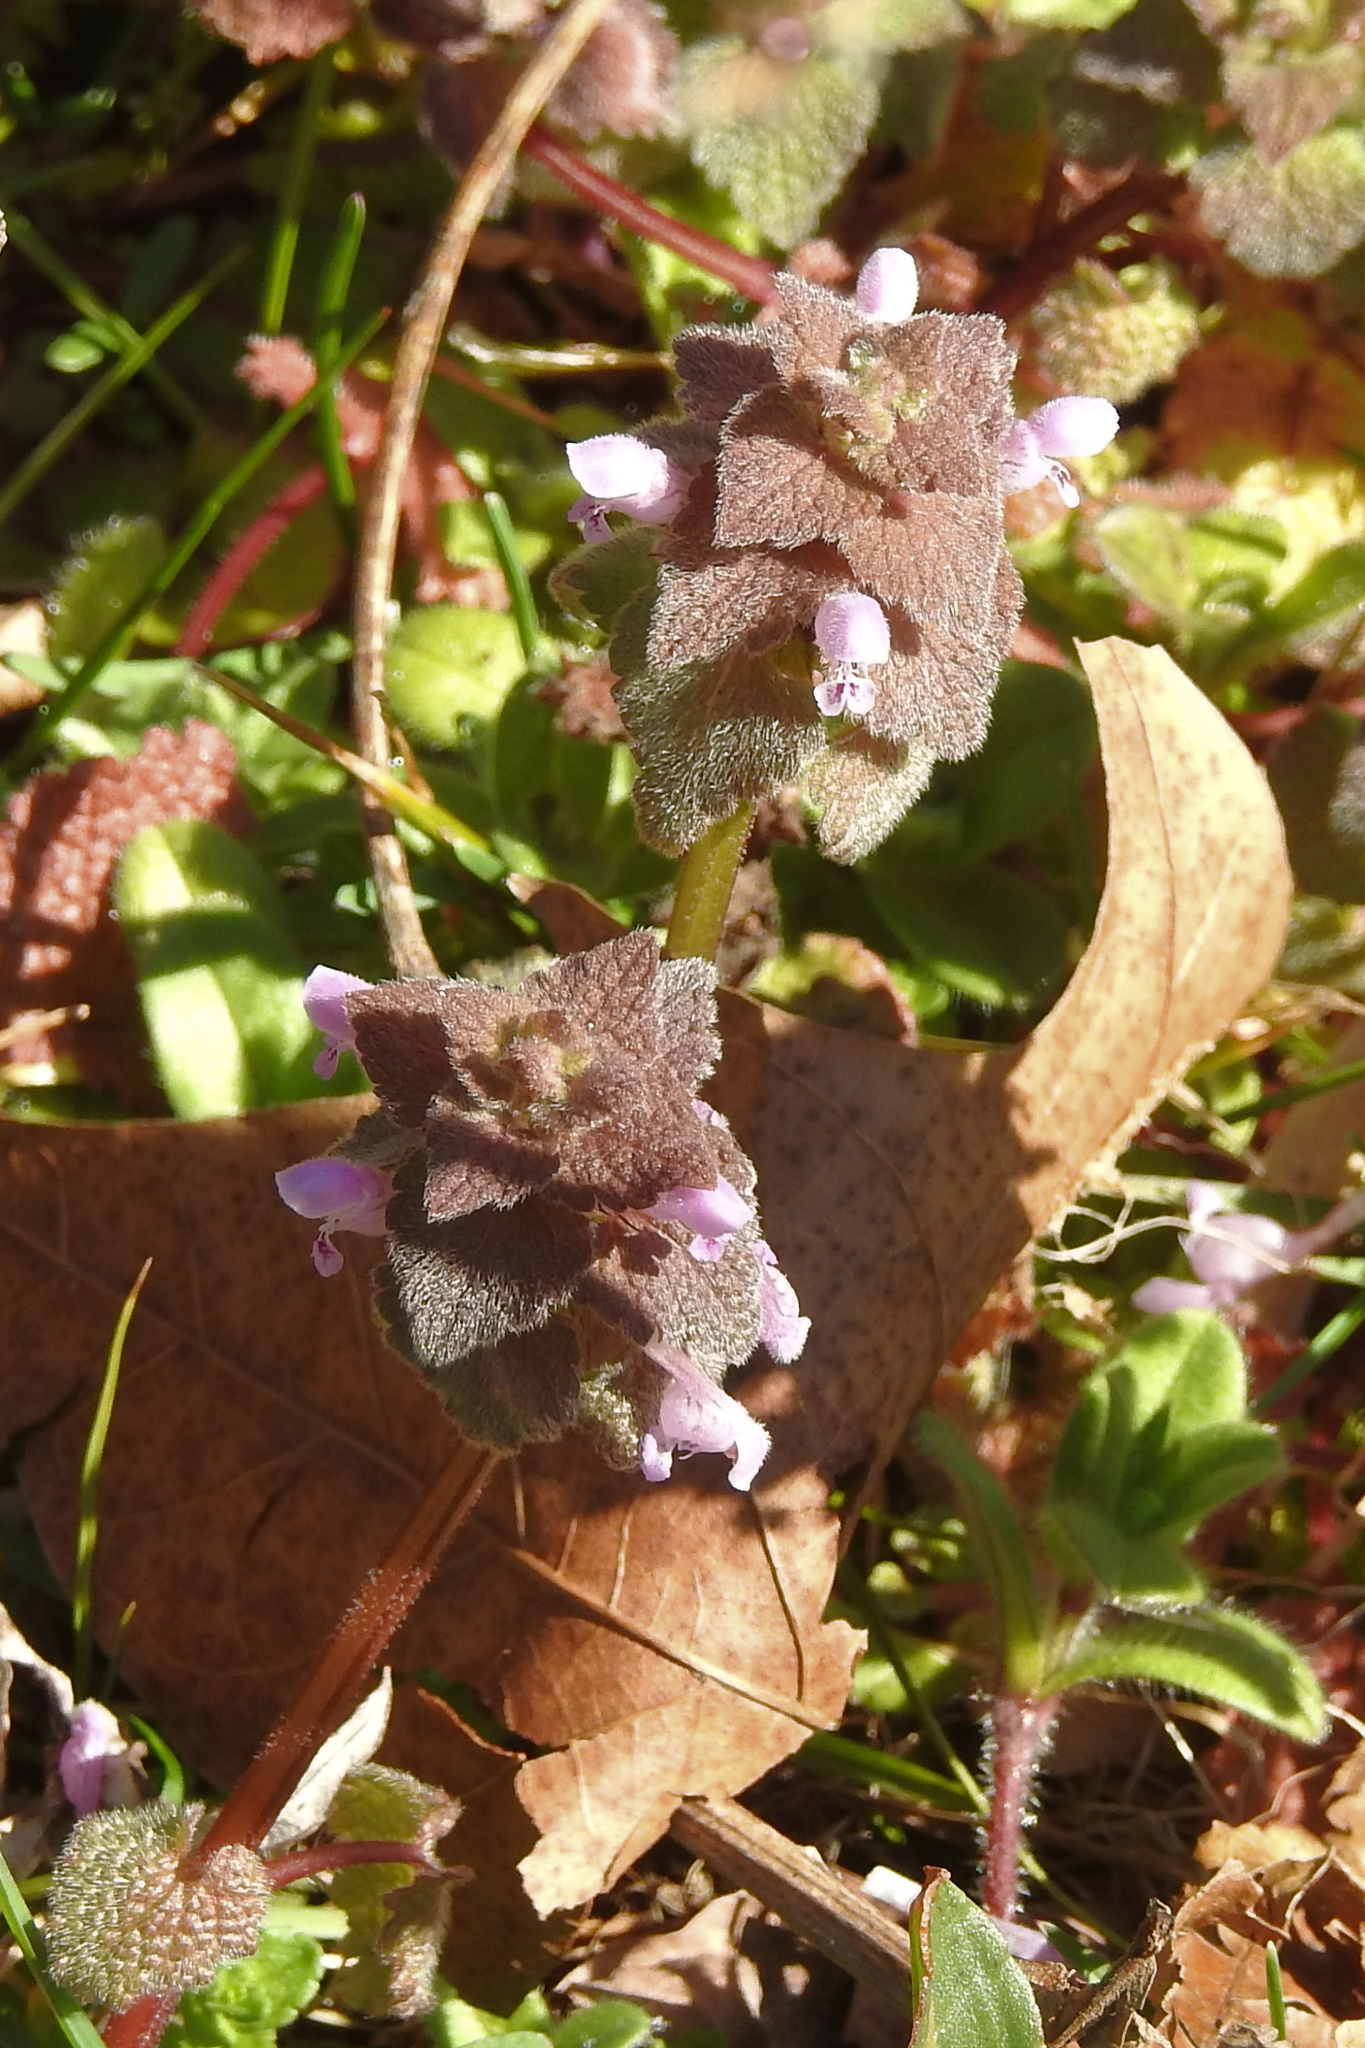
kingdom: Plantae
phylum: Tracheophyta
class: Magnoliopsida
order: Lamiales
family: Lamiaceae
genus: Lamium
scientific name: Lamium purpureum
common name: Red dead-nettle
